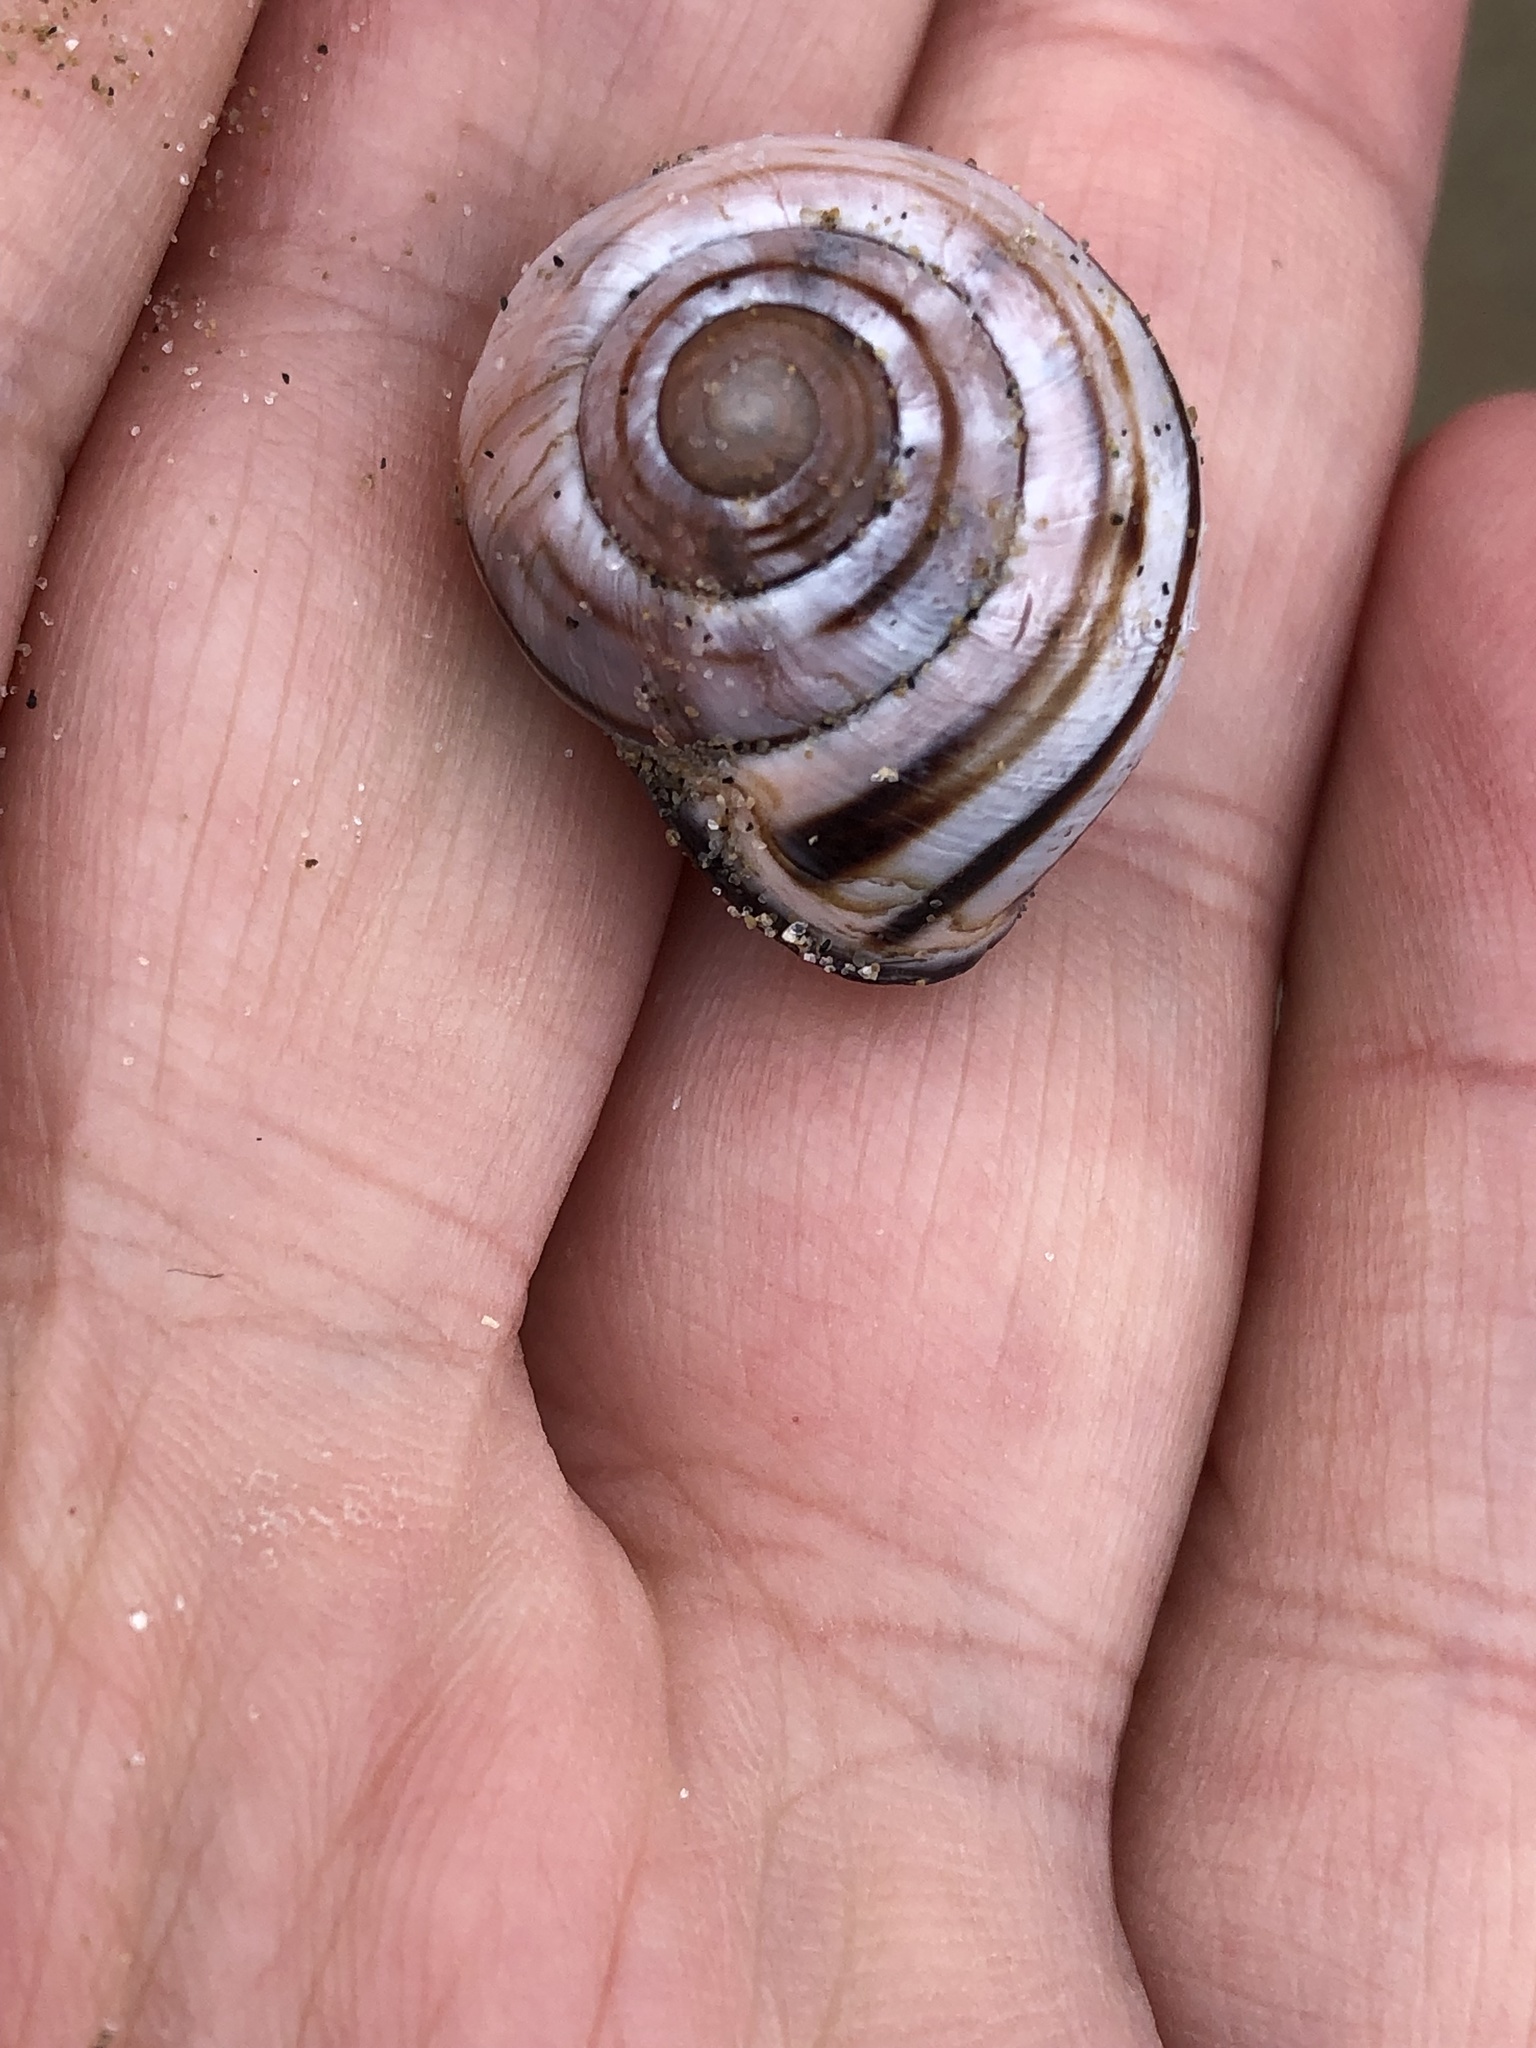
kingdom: Animalia
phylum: Mollusca
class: Gastropoda
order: Stylommatophora
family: Helicidae
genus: Cepaea
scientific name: Cepaea nemoralis
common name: Grovesnail
